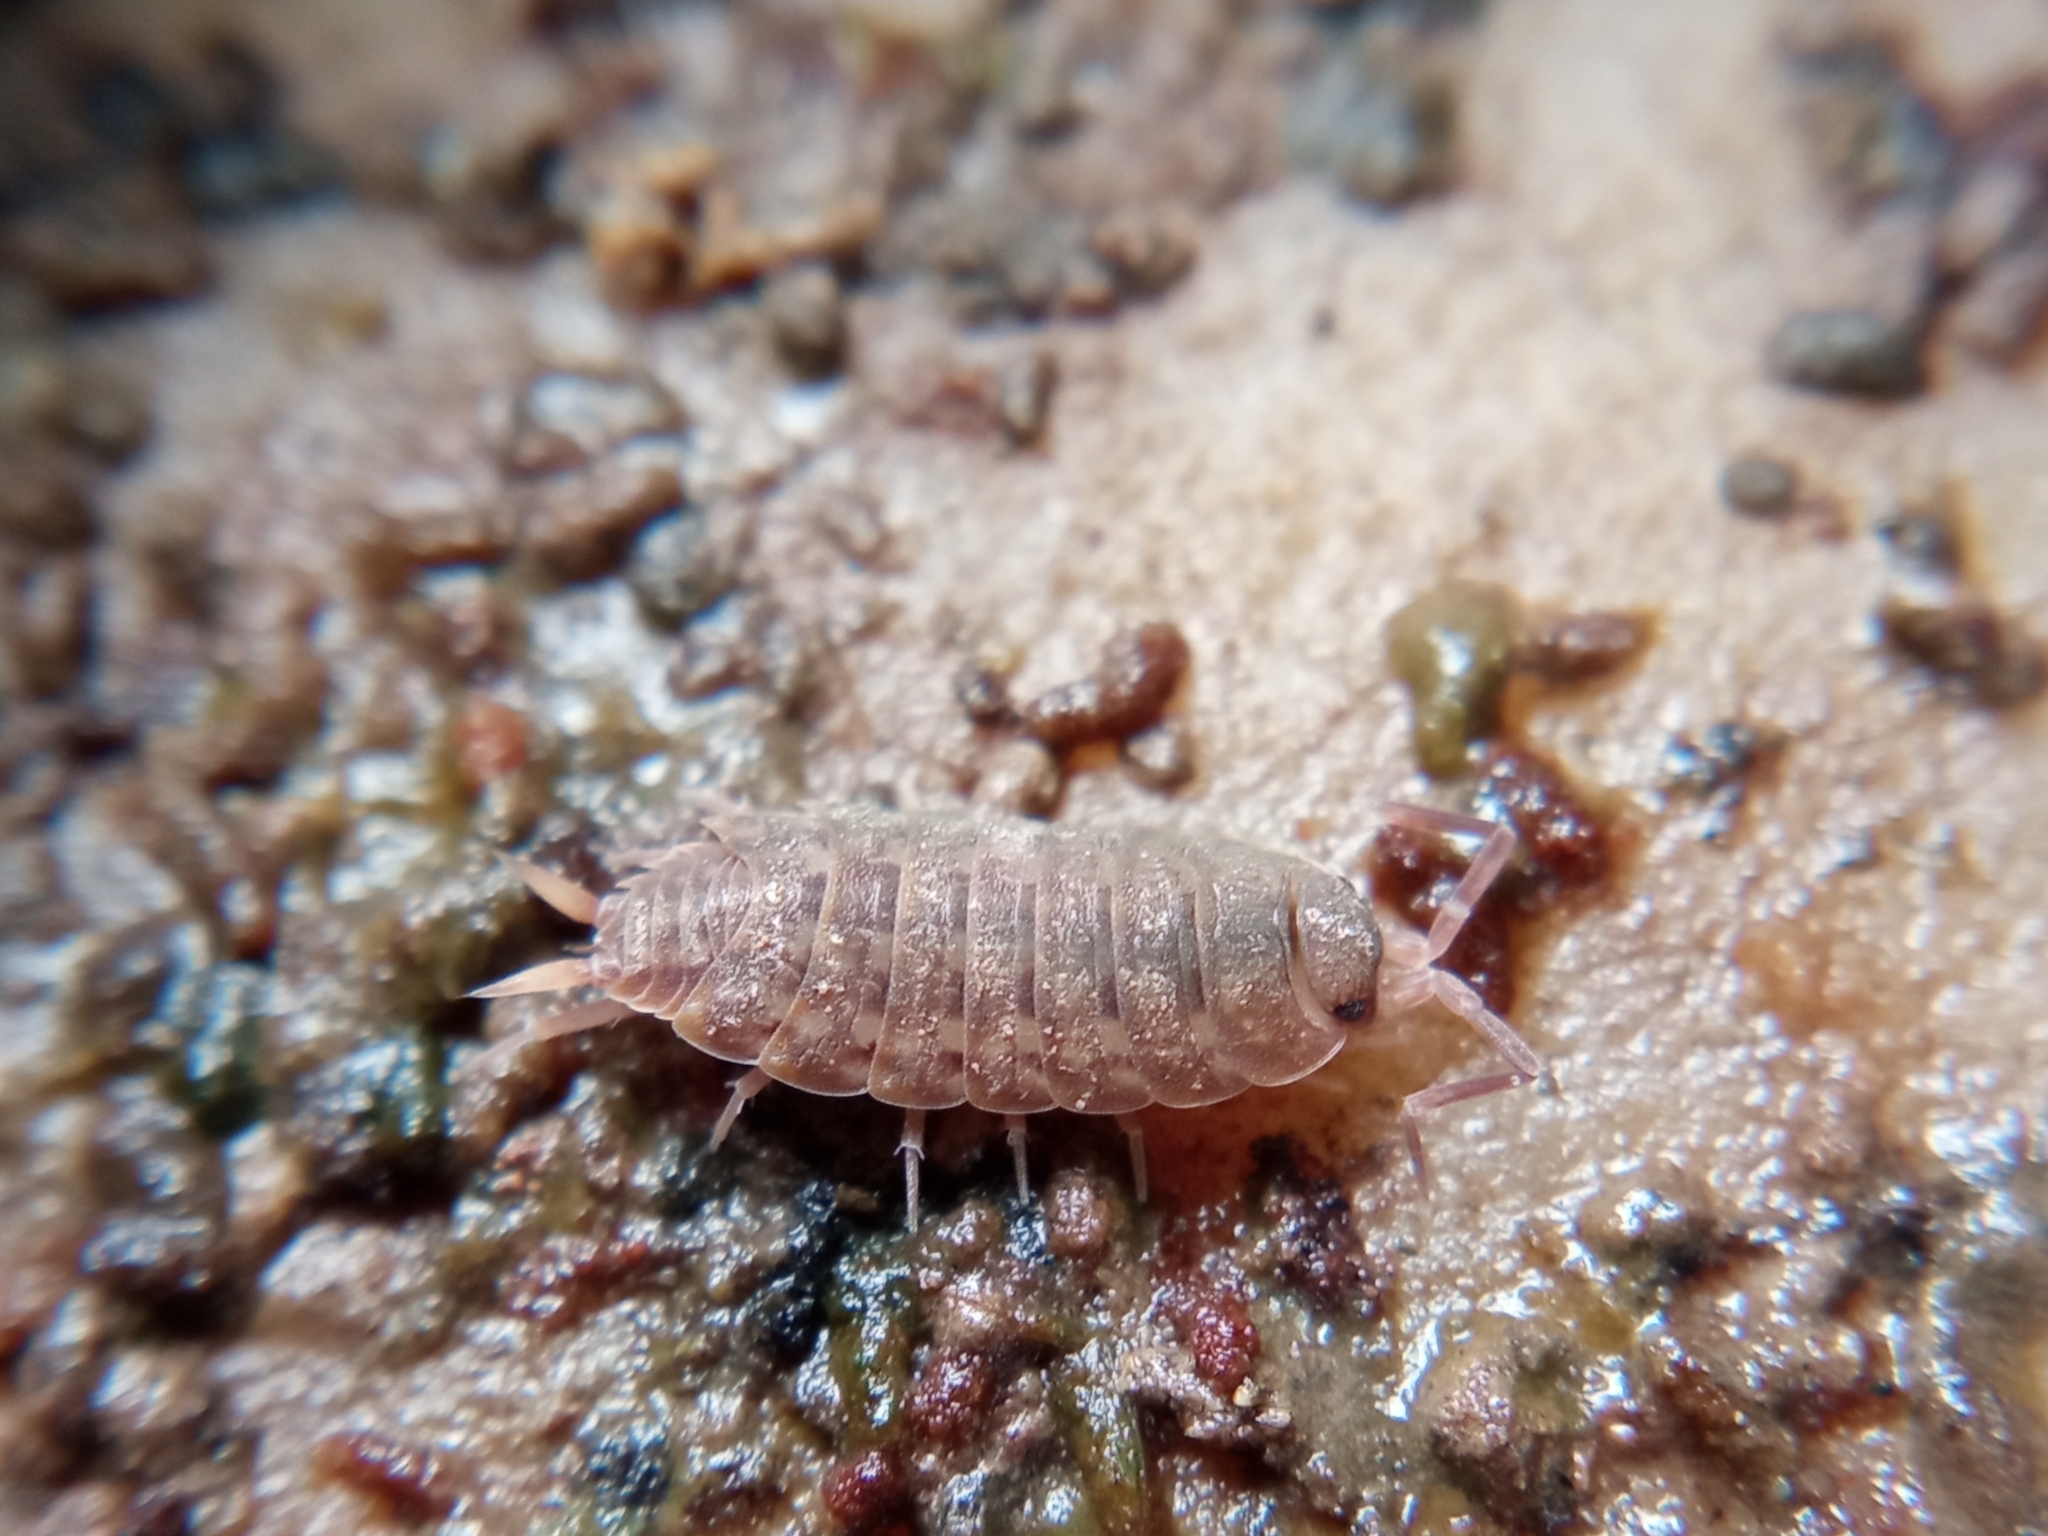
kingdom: Animalia
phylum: Arthropoda
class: Malacostraca
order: Isopoda
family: Agnaridae
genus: Orthometopon
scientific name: Orthometopon planum
